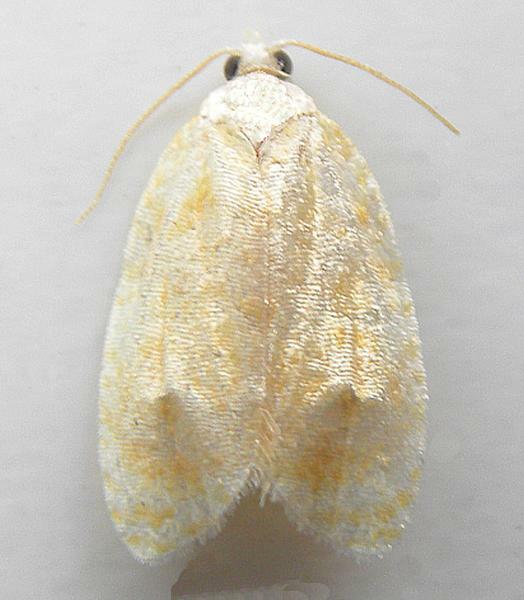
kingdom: Animalia
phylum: Arthropoda
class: Insecta
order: Lepidoptera
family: Tortricidae
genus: Acleris
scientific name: Acleris semipurpurana
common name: Oak leaftier moth
